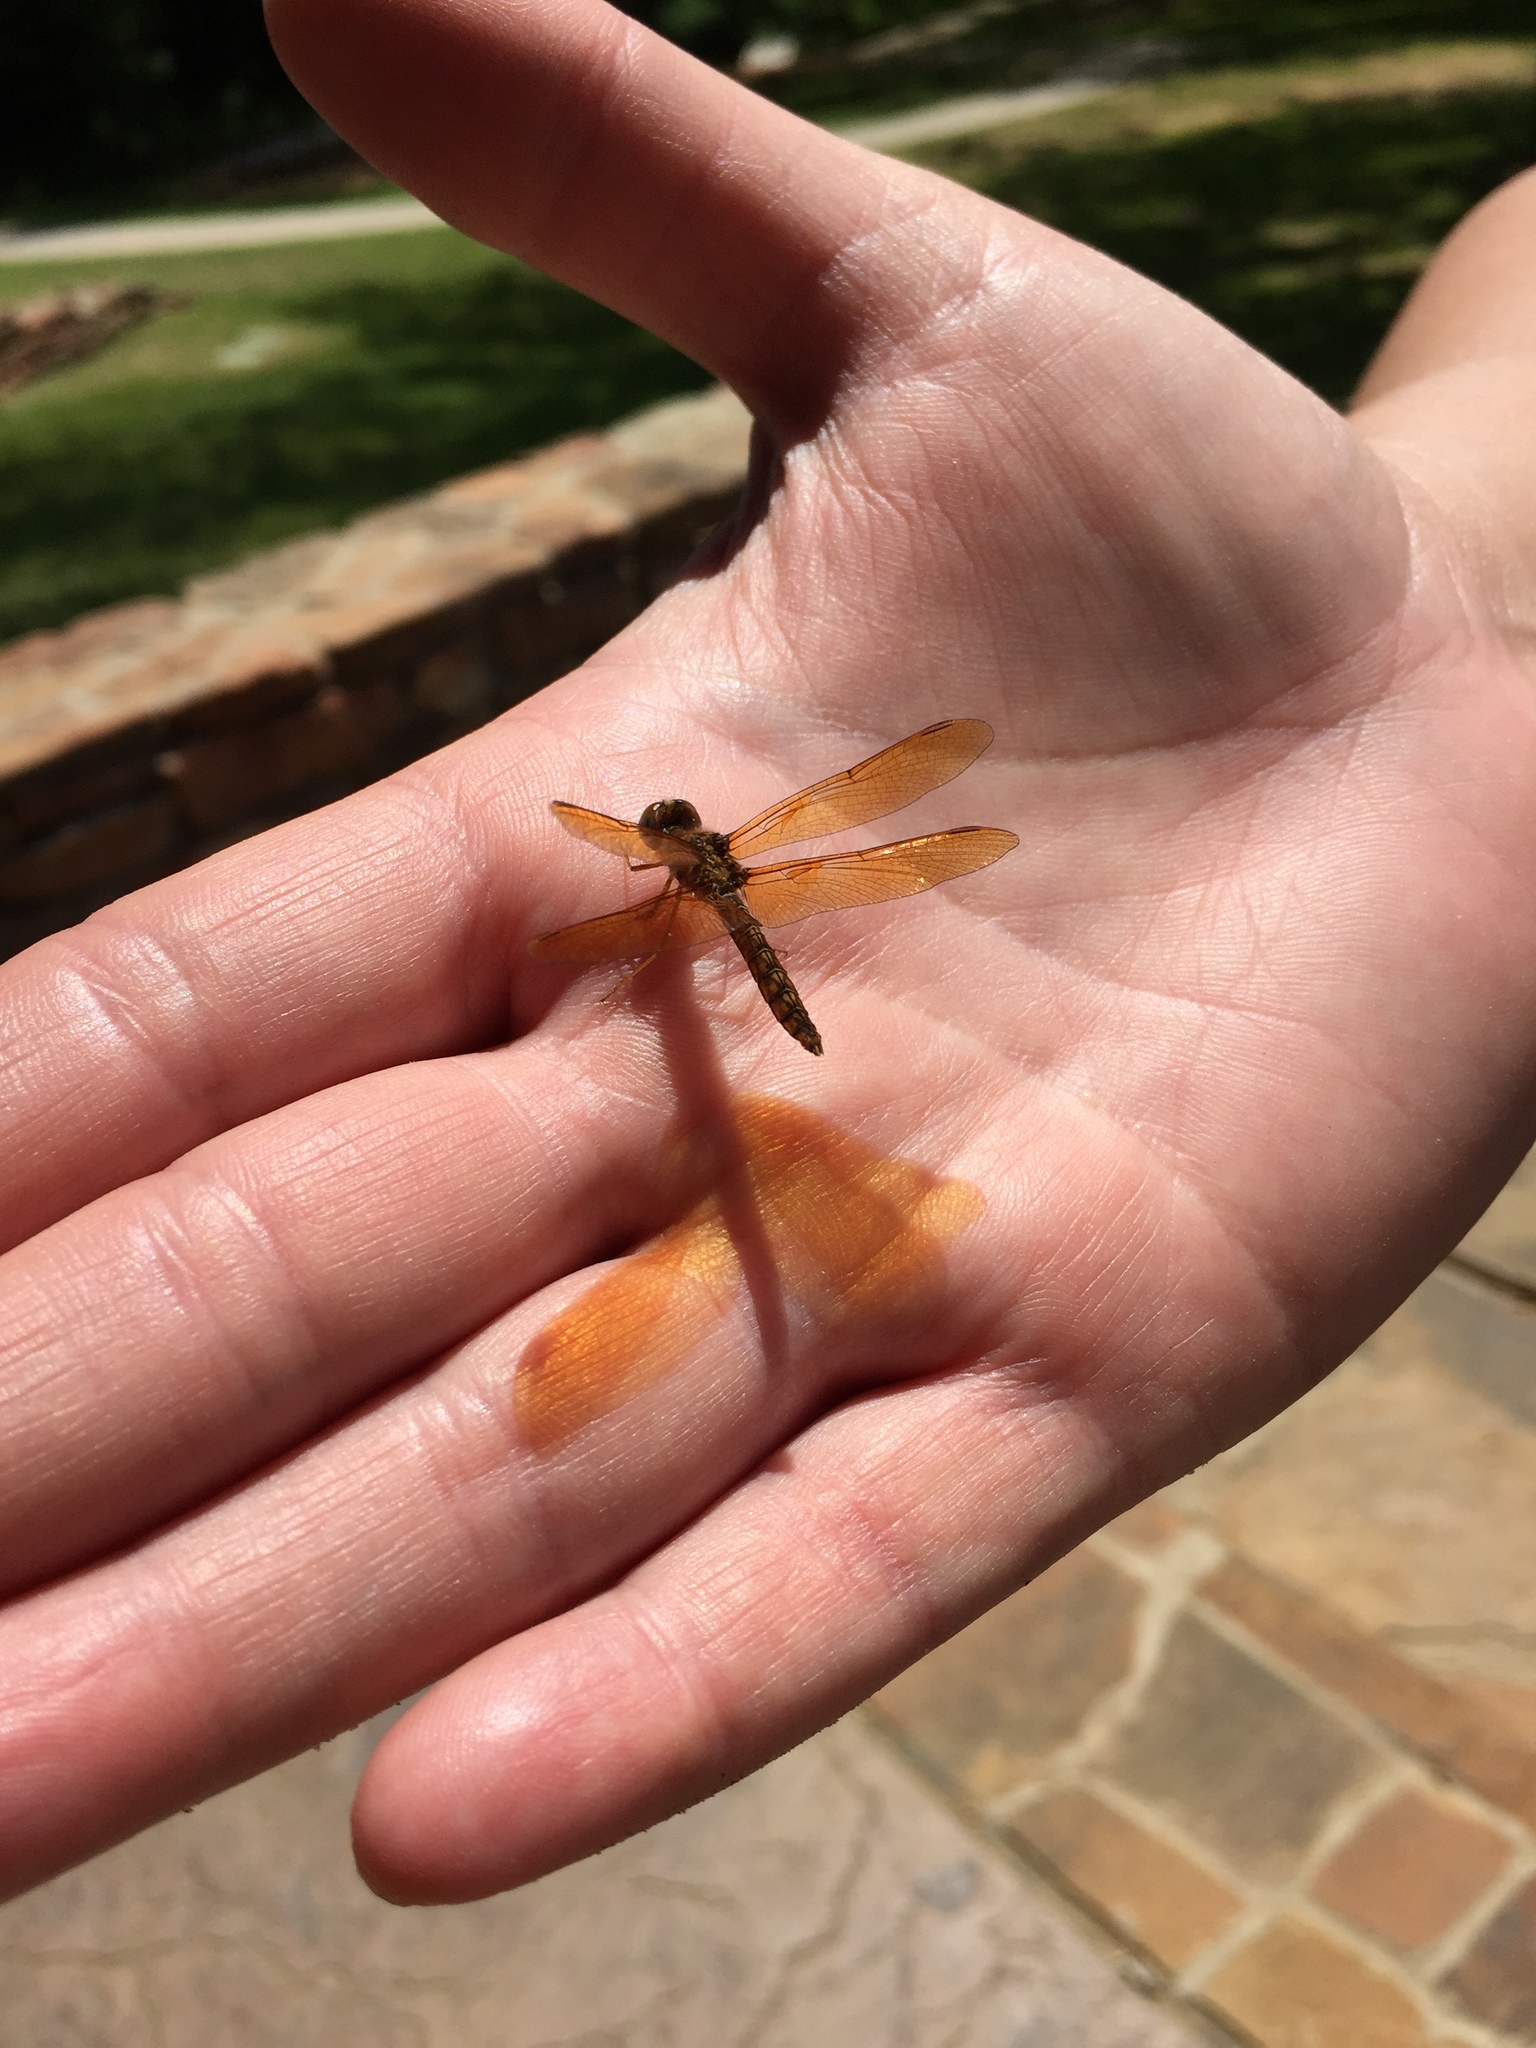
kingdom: Animalia
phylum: Arthropoda
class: Insecta
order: Odonata
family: Libellulidae
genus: Perithemis
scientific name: Perithemis tenera
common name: Eastern amberwing
